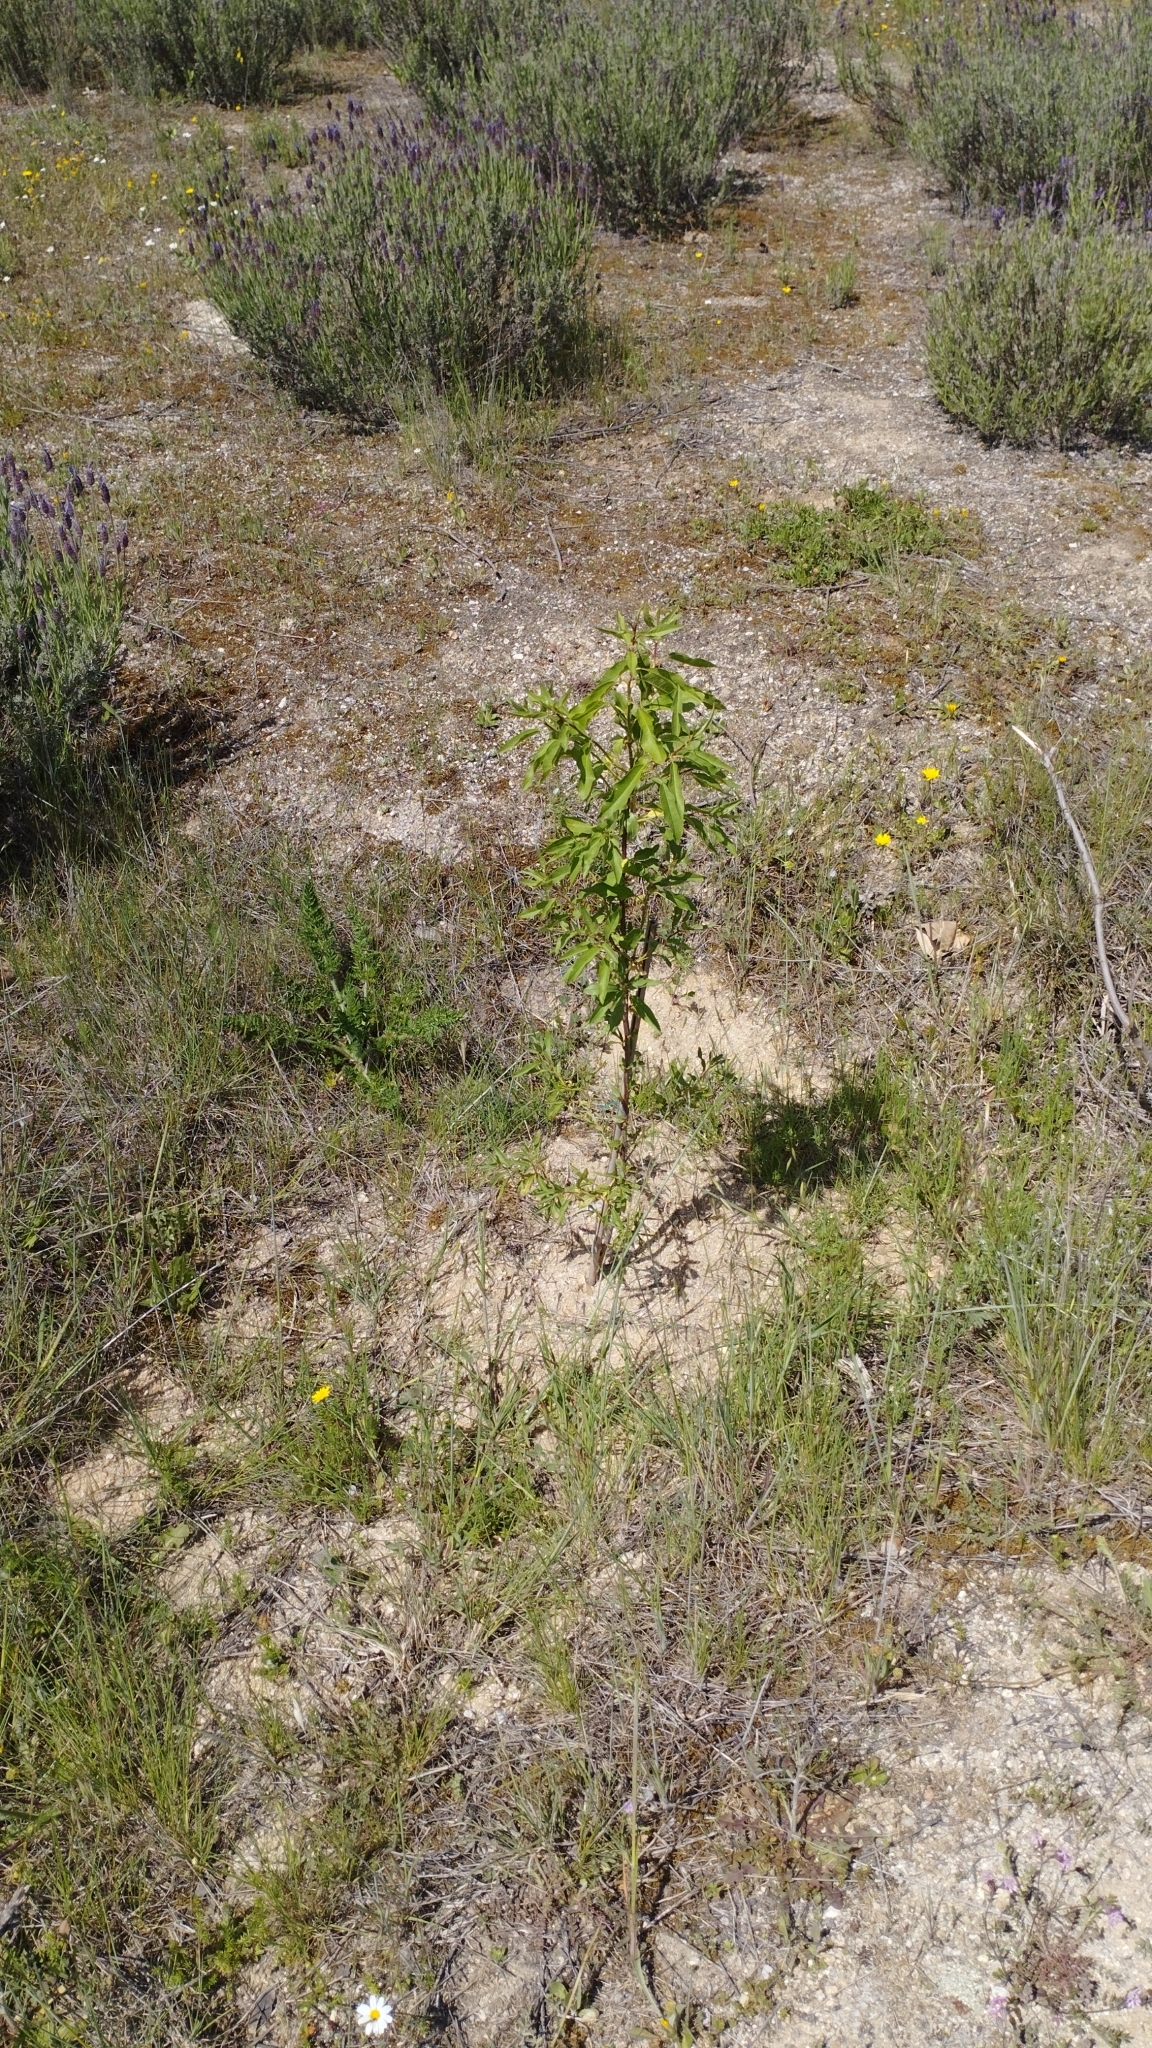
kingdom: Plantae
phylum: Tracheophyta
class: Magnoliopsida
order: Rosales
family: Rosaceae
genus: Prunus
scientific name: Prunus amygdalus
